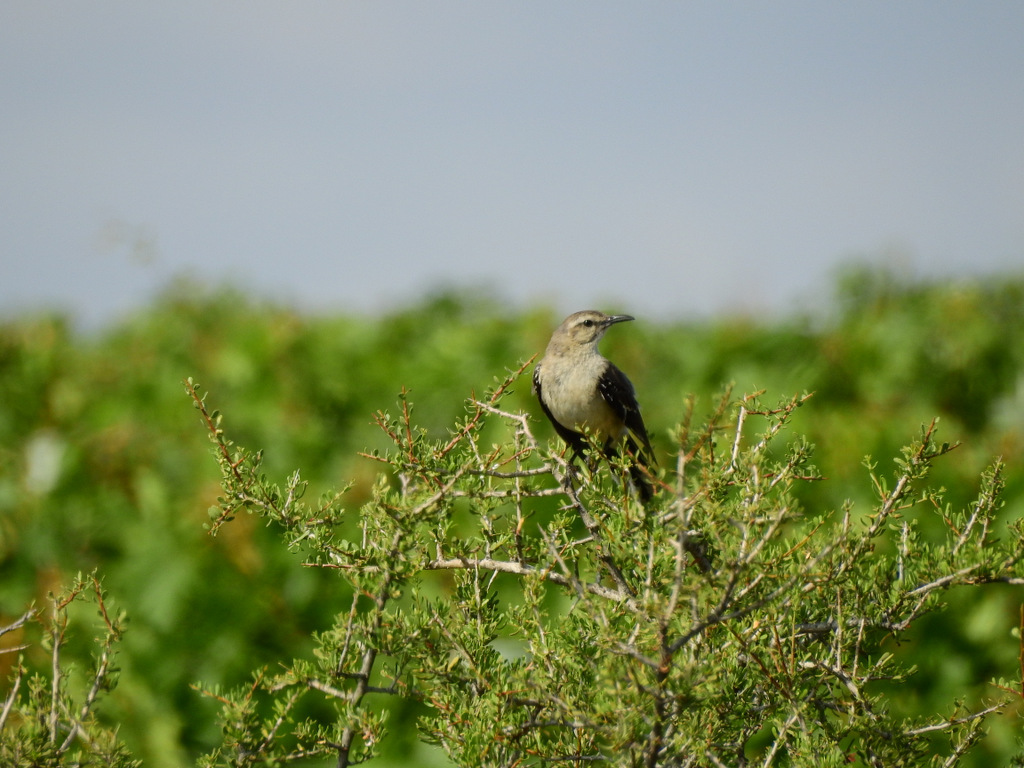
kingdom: Animalia
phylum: Chordata
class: Aves
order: Passeriformes
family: Mimidae
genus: Mimus
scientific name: Mimus patagonicus
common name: Patagonian mockingbird
